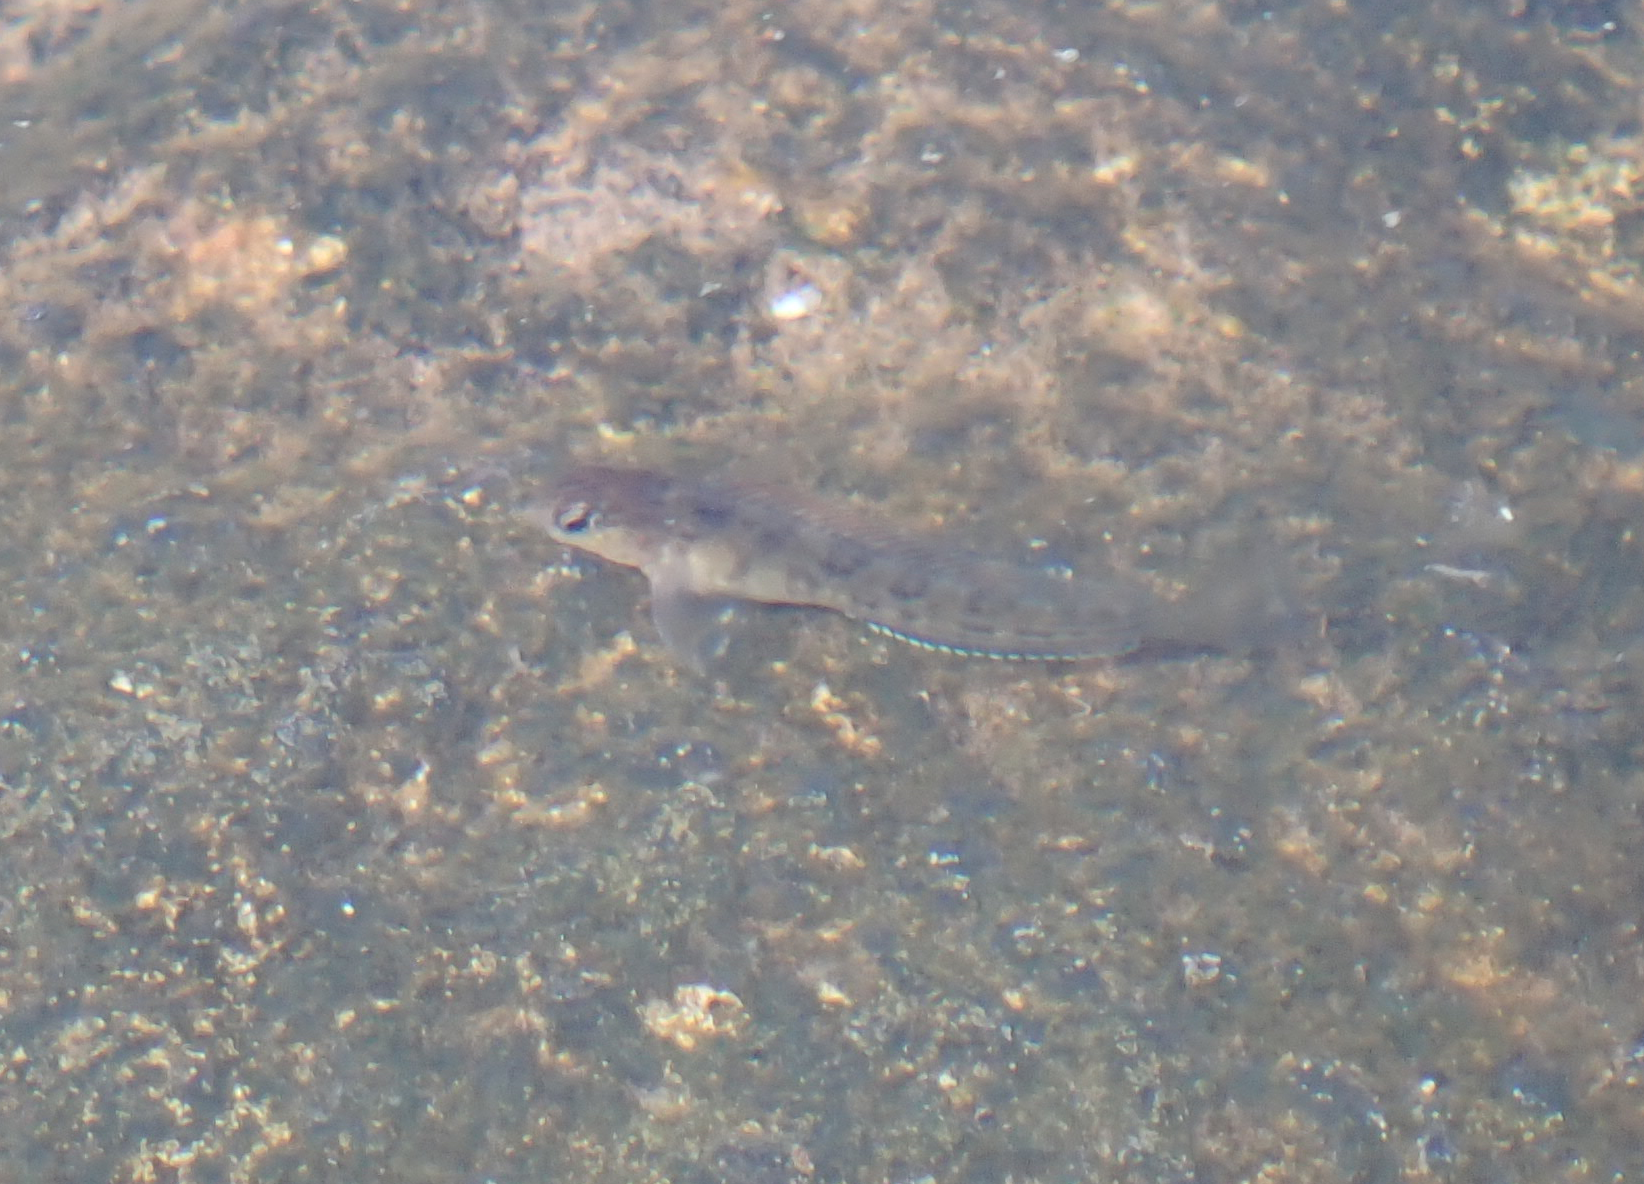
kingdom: Animalia
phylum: Chordata
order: Perciformes
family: Blenniidae
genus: Parablennius
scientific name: Parablennius parvicornis
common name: Rock-pool blenny
